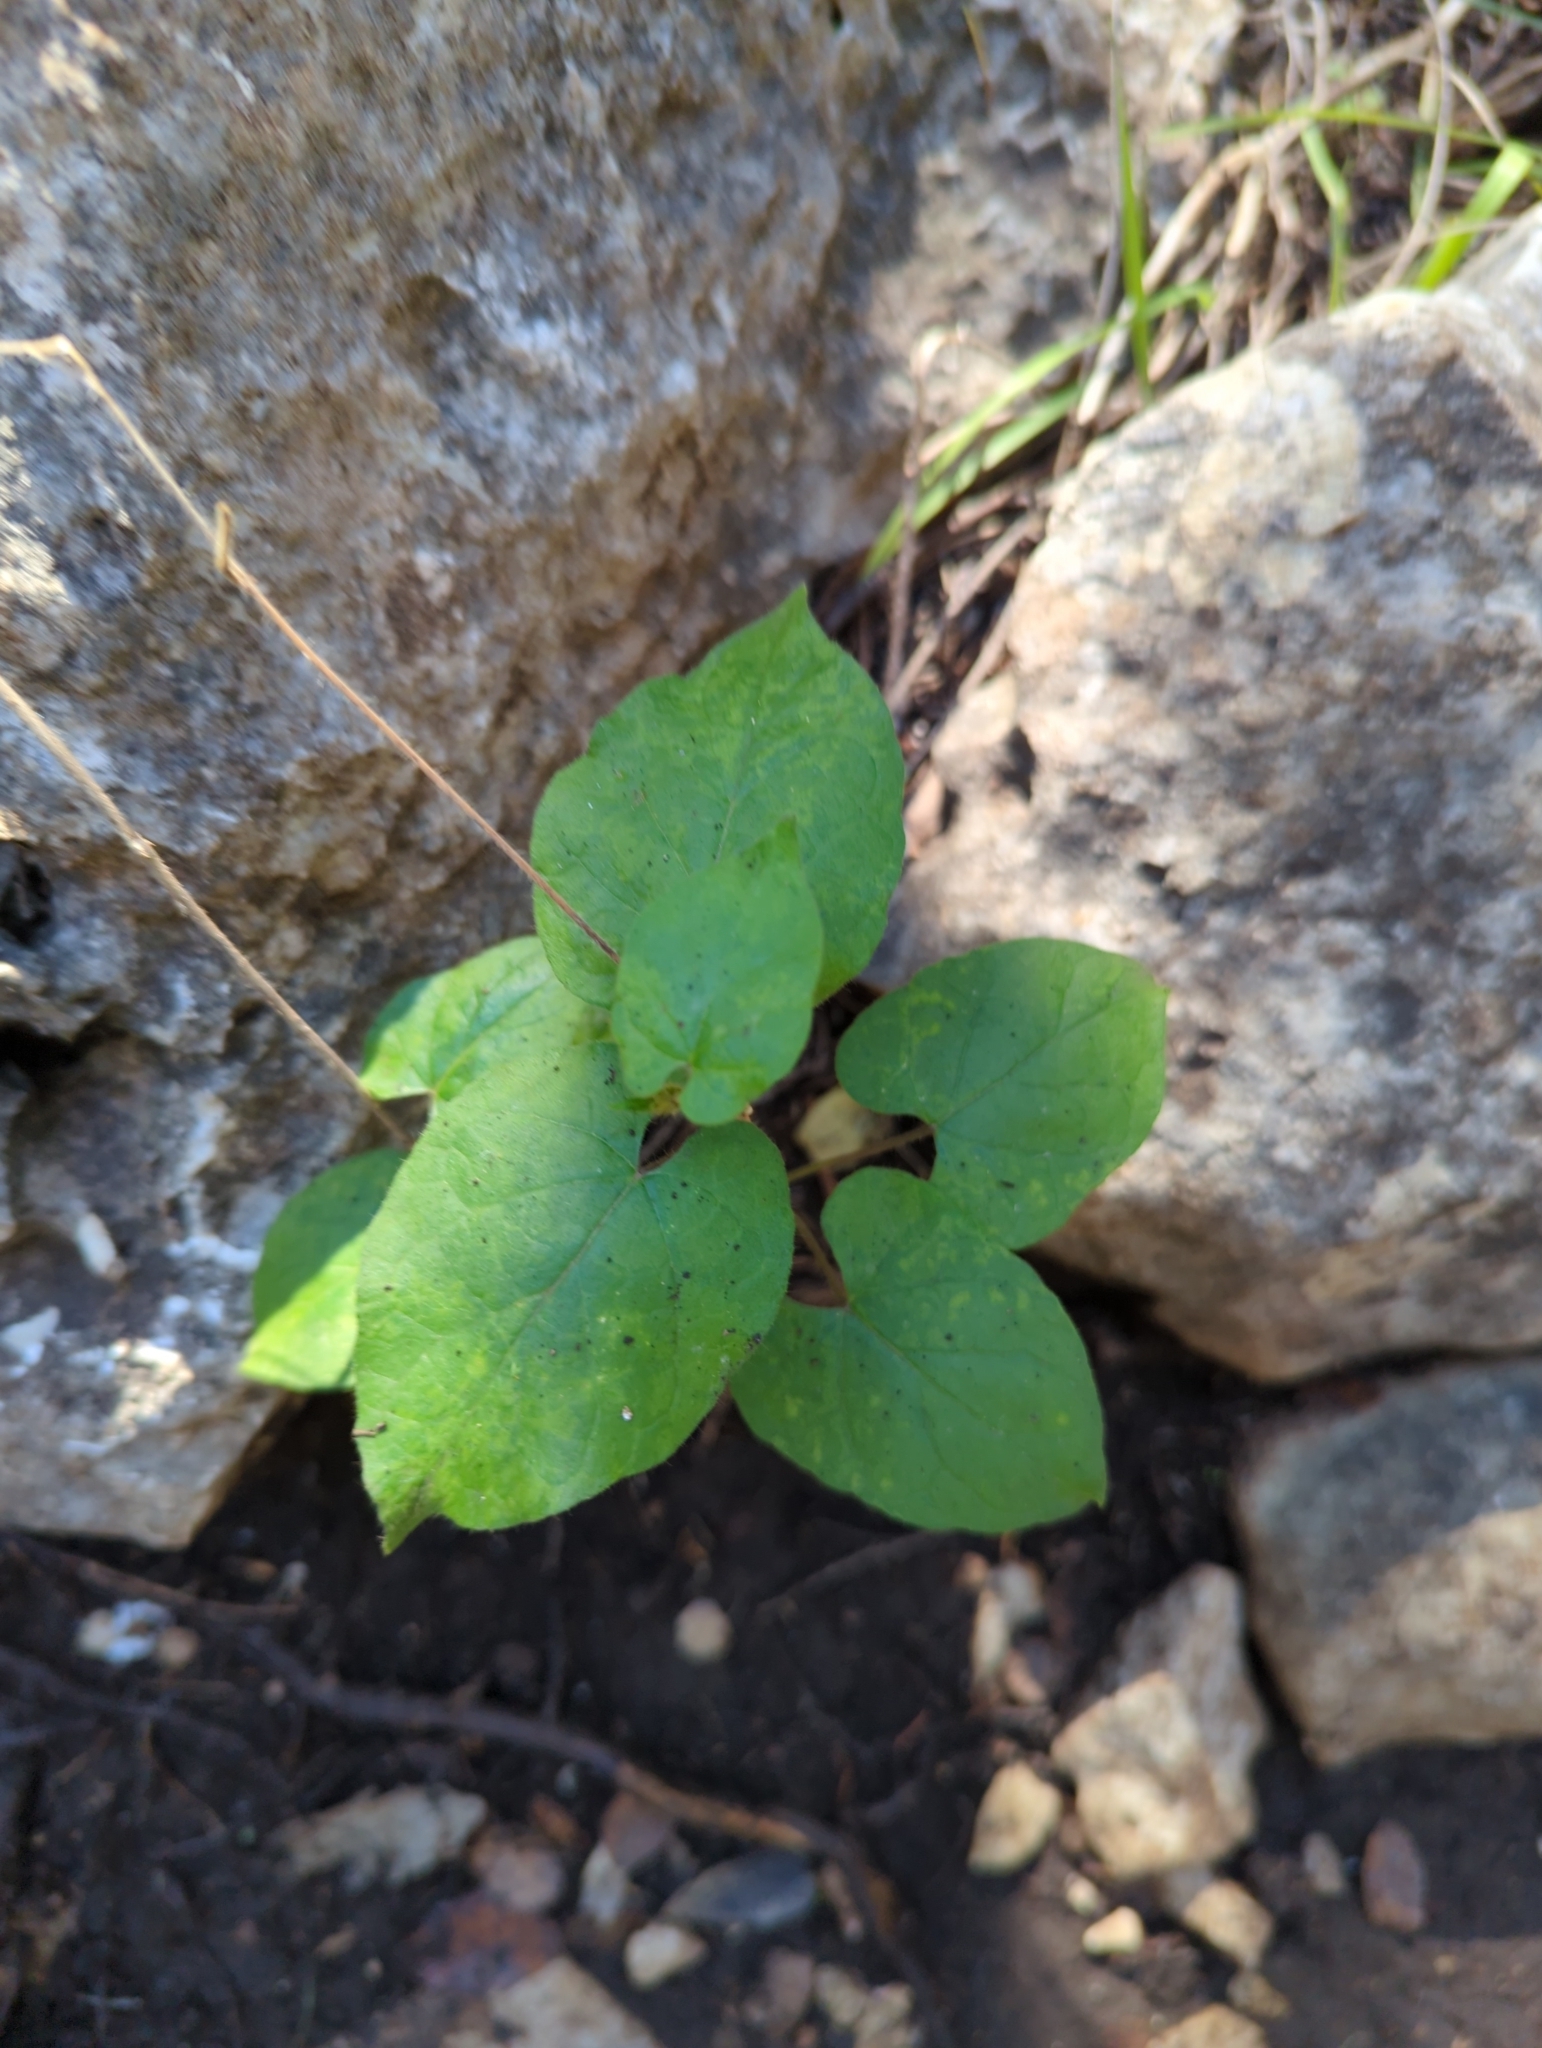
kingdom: Plantae
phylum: Tracheophyta
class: Magnoliopsida
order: Piperales
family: Aristolochiaceae
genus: Endodeca
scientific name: Endodeca serpentaria
